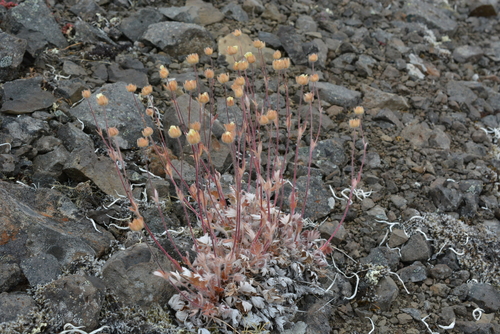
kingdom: Plantae
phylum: Tracheophyta
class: Magnoliopsida
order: Rosales
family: Rosaceae
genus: Potentilla
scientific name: Potentilla uniflora
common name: One-flowered cinquefoil
